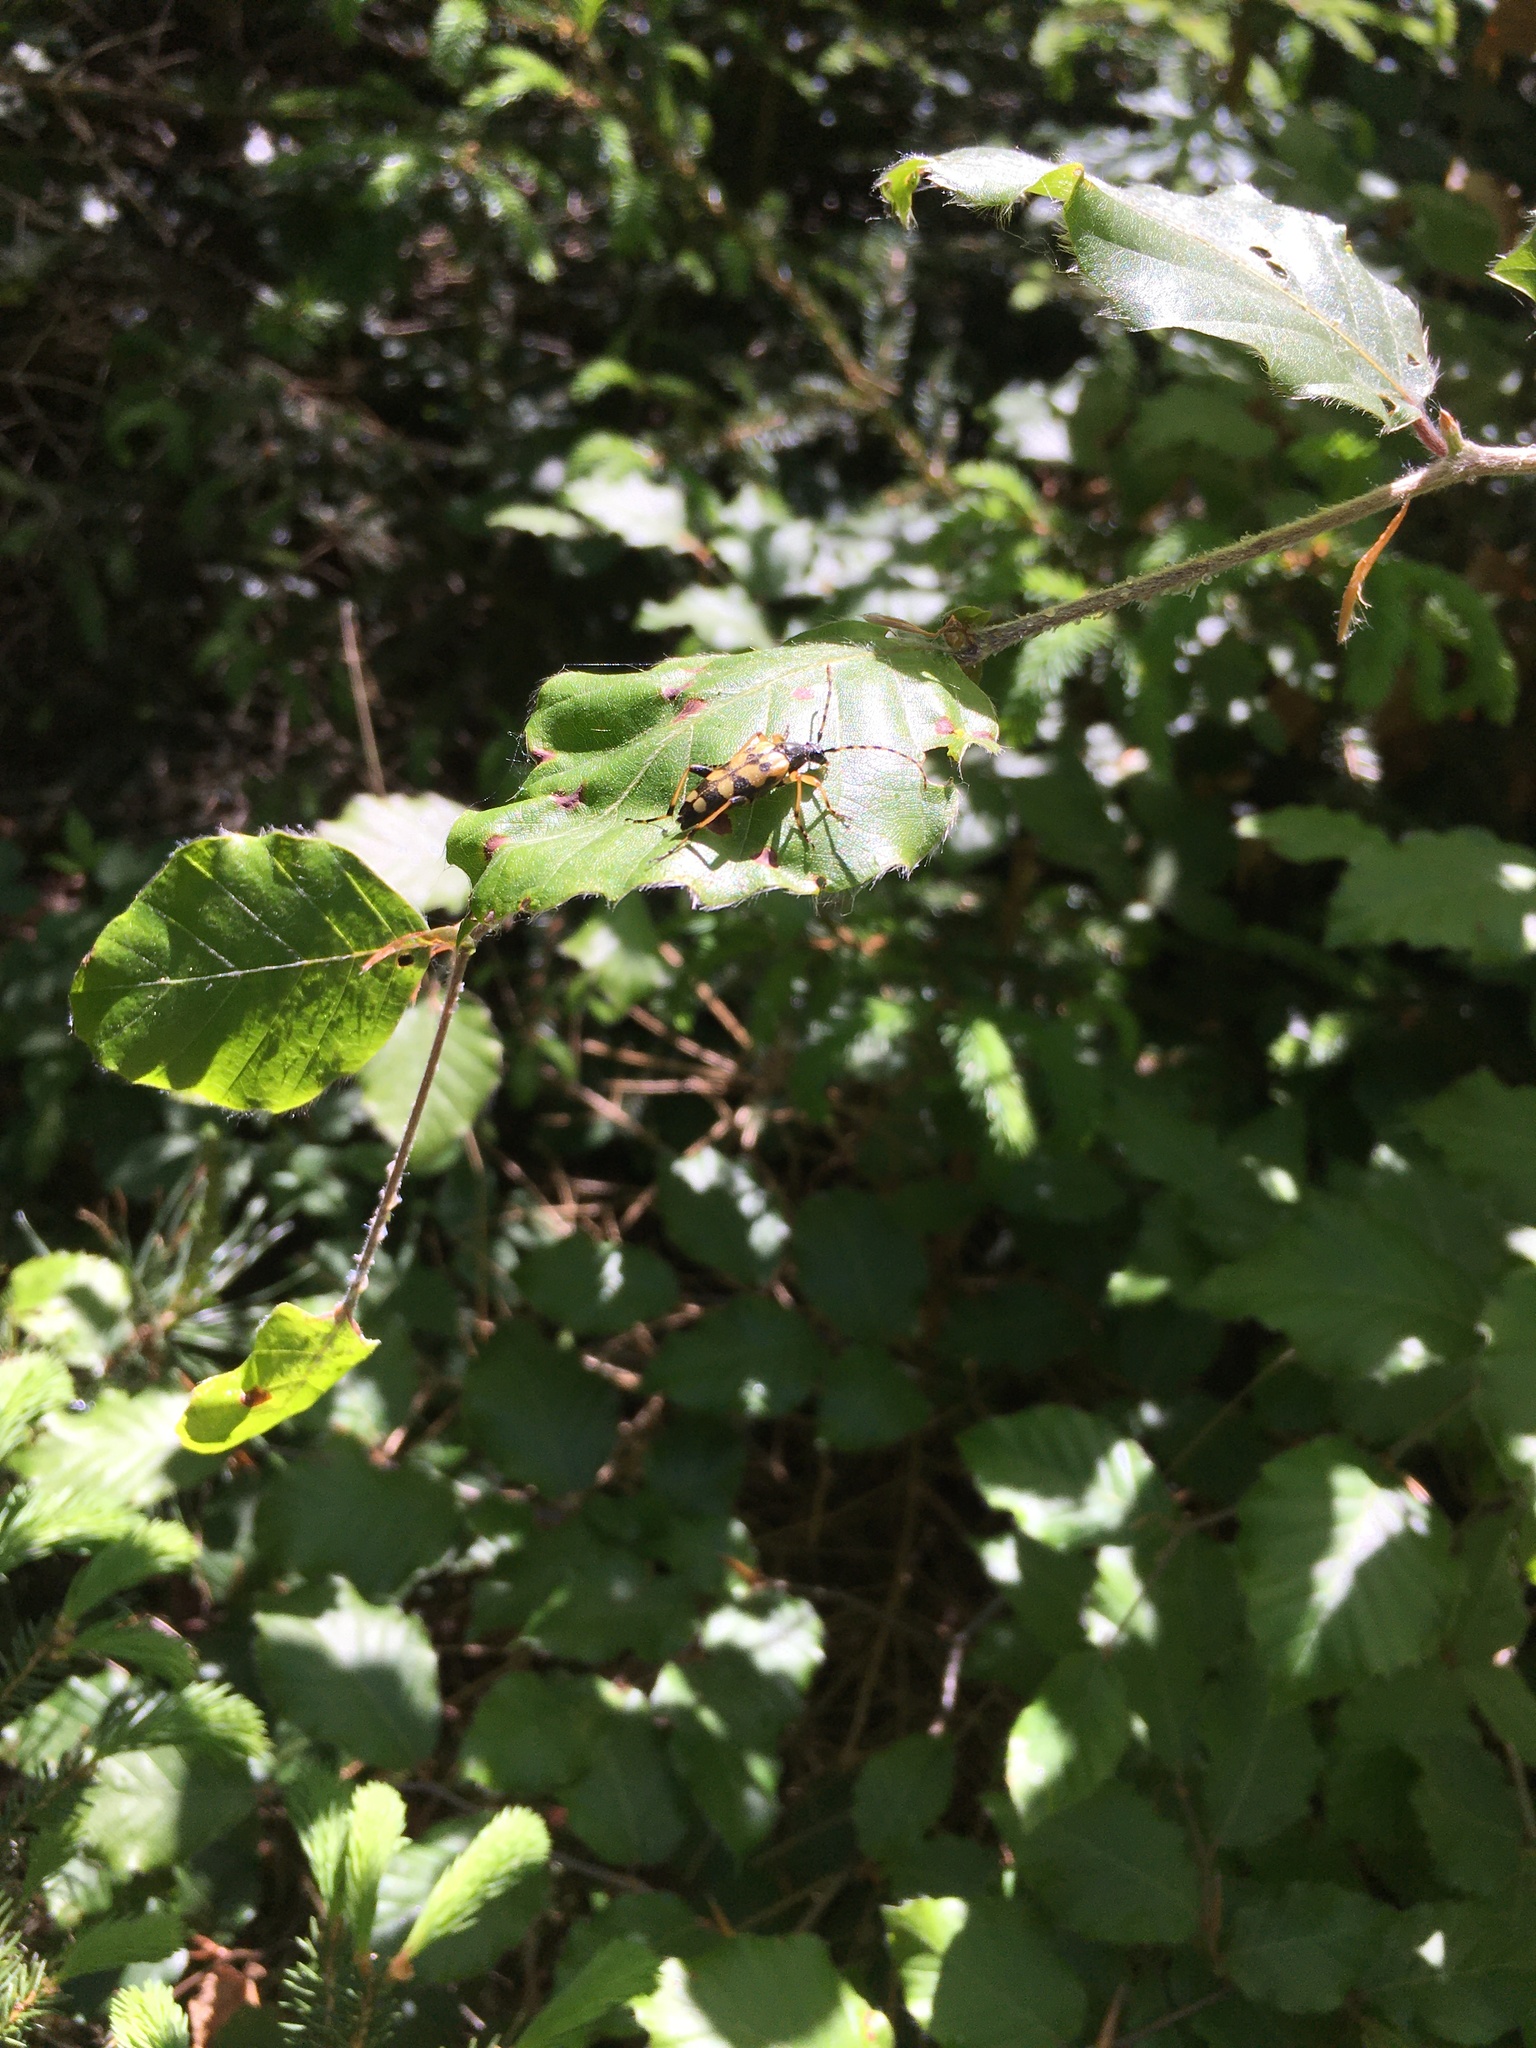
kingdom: Animalia
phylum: Arthropoda
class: Insecta
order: Coleoptera
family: Cerambycidae
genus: Rutpela
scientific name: Rutpela maculata
